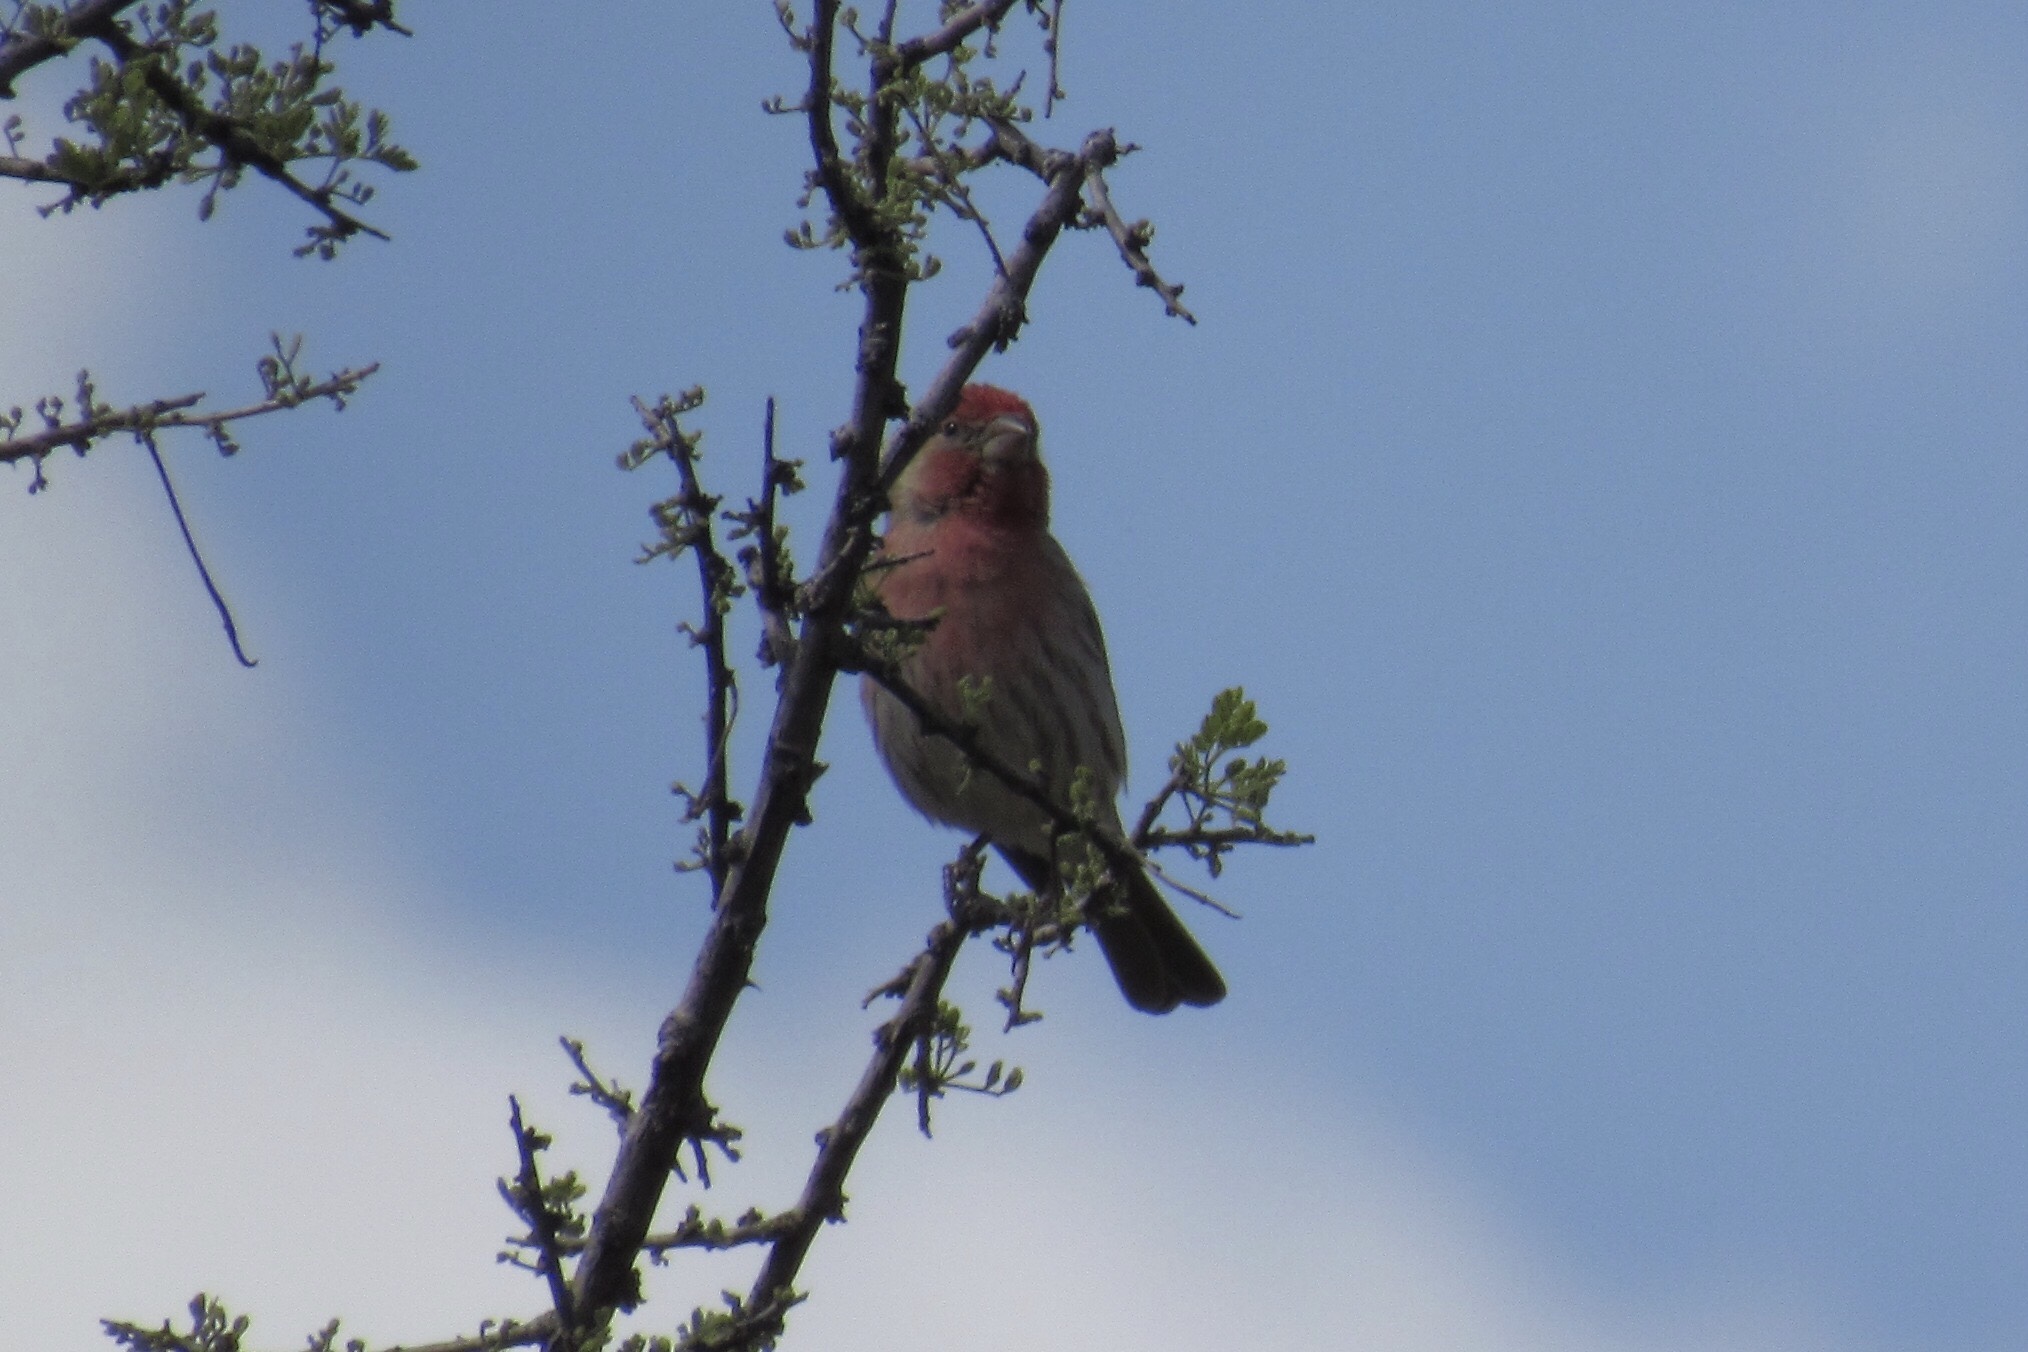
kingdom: Animalia
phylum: Chordata
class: Aves
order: Passeriformes
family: Fringillidae
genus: Haemorhous
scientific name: Haemorhous mexicanus
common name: House finch
